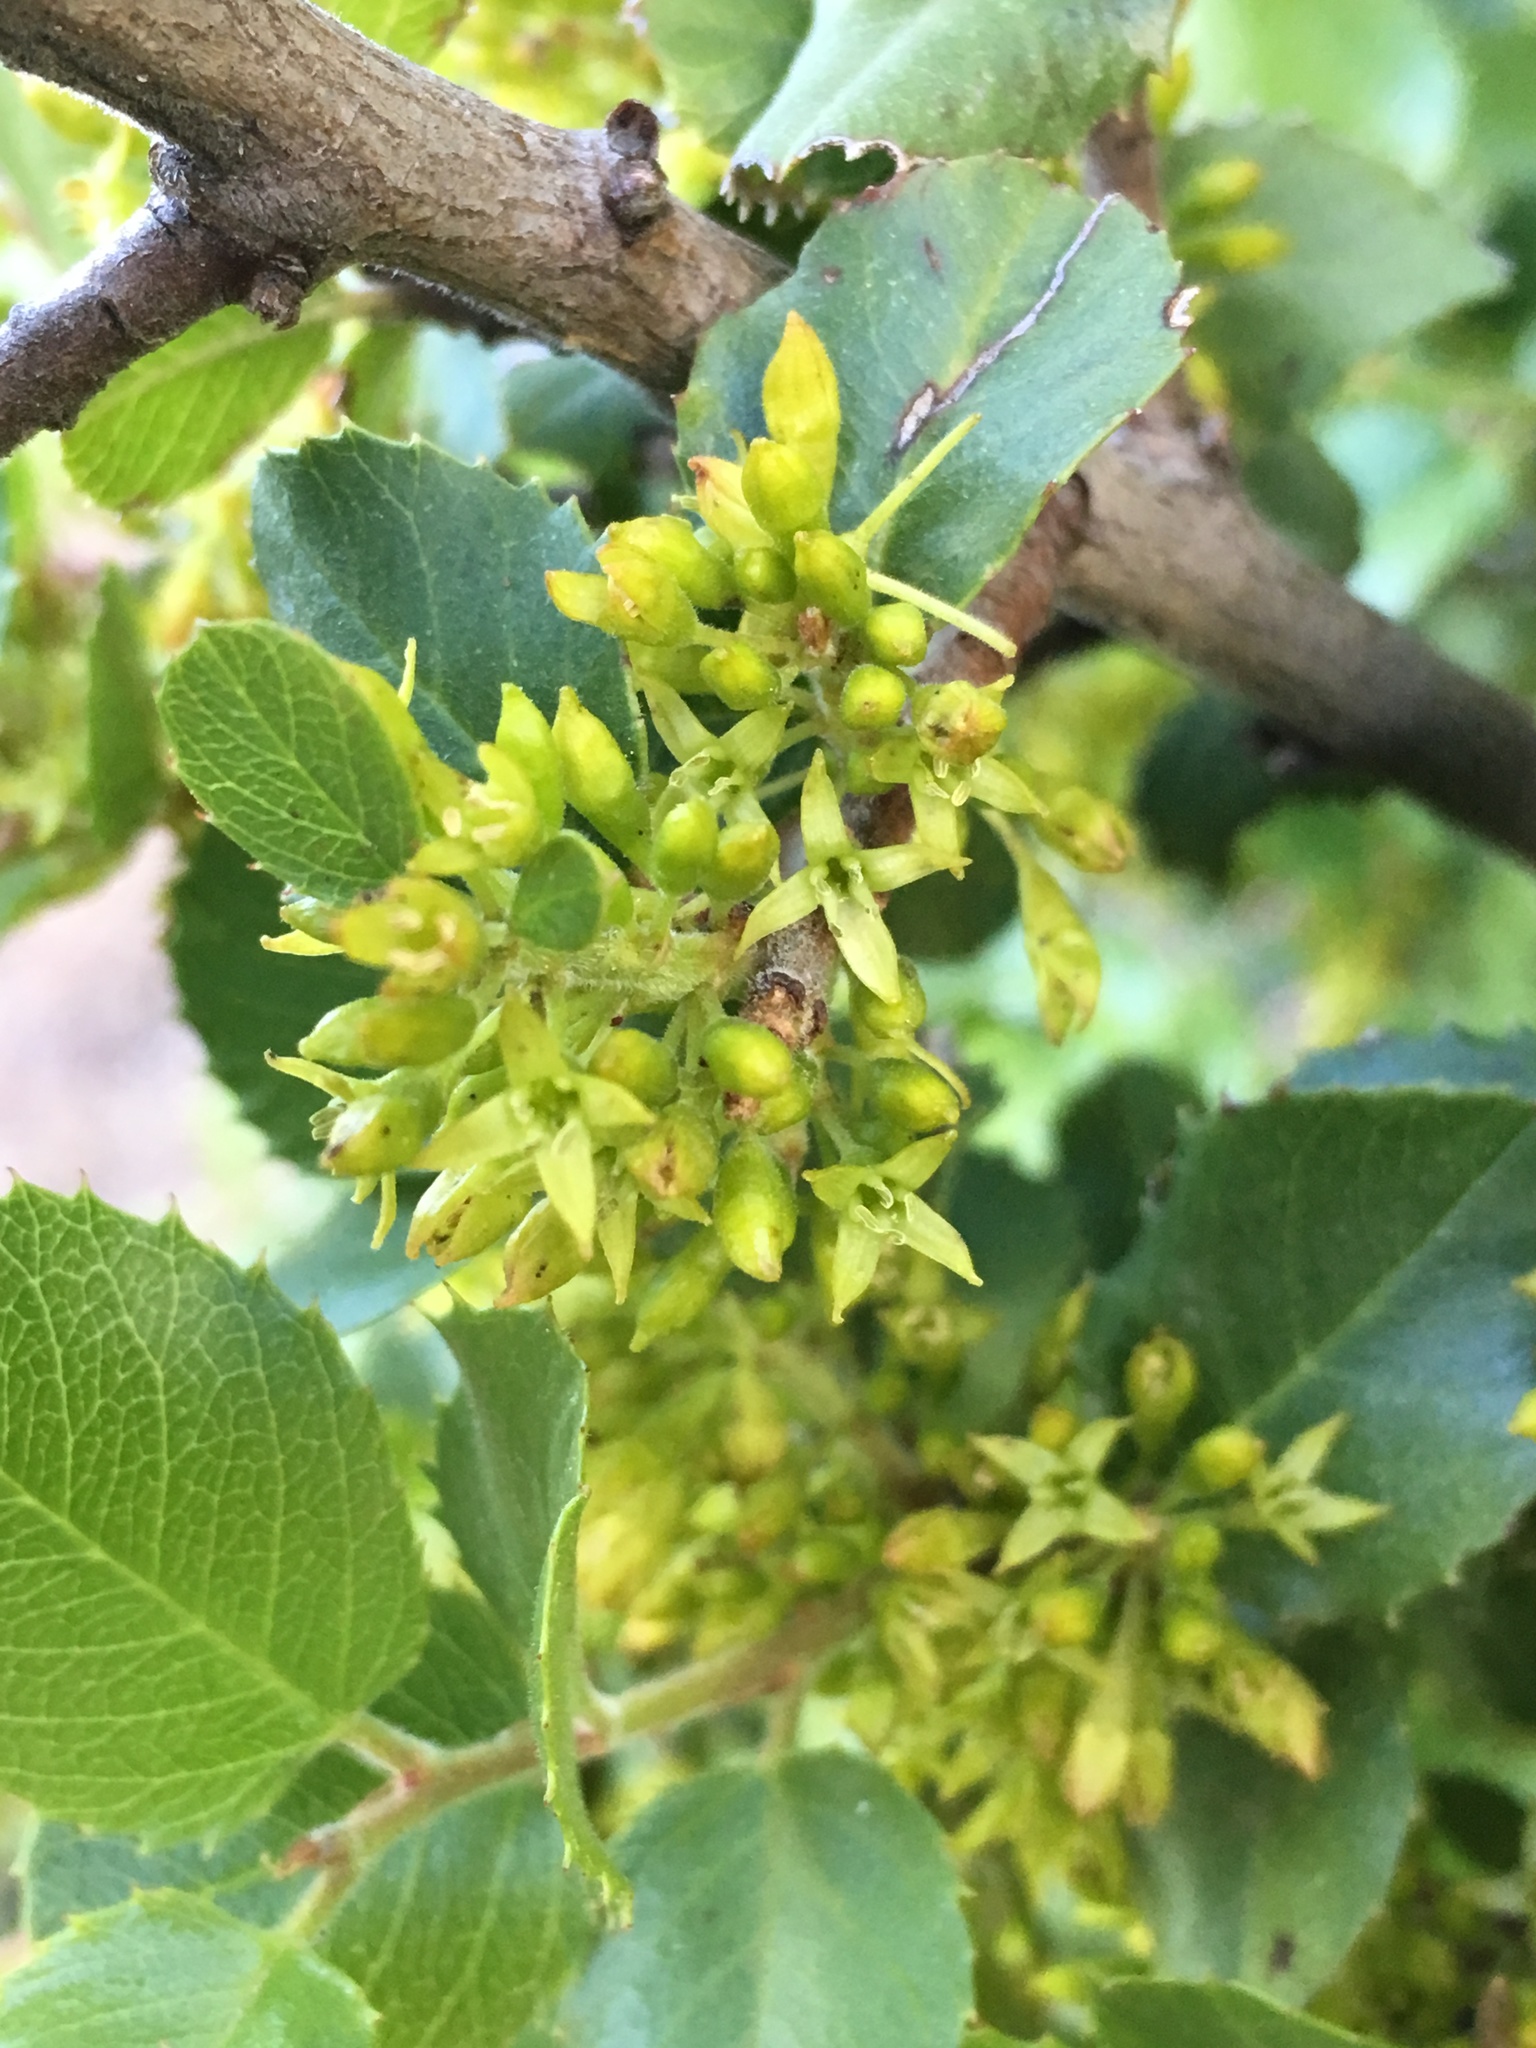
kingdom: Plantae
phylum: Tracheophyta
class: Magnoliopsida
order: Rosales
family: Rhamnaceae
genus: Endotropis
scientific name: Endotropis crocea
